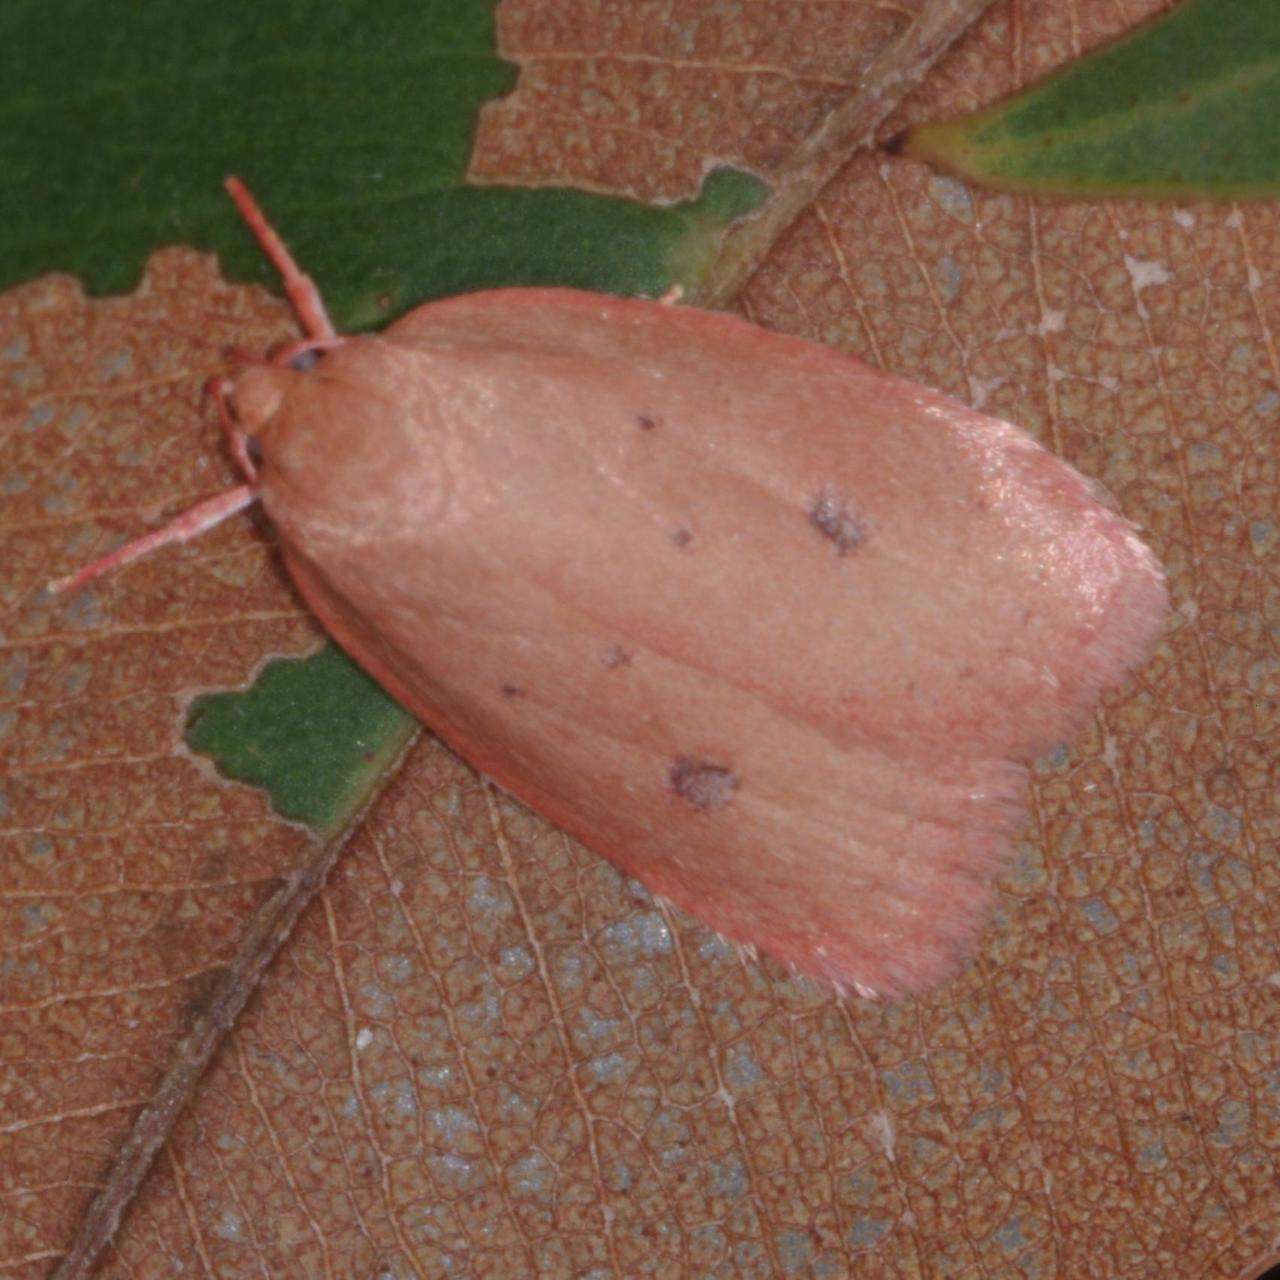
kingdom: Animalia
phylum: Arthropoda
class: Insecta
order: Lepidoptera
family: Oecophoridae
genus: Garrha
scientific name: Garrha pudica
